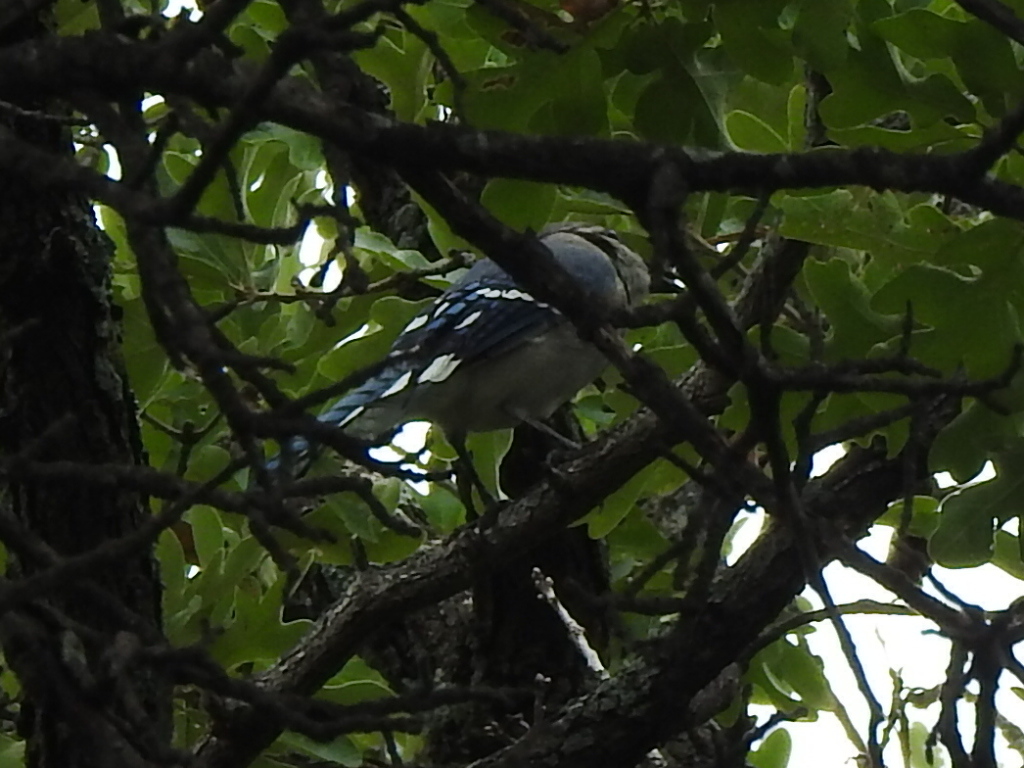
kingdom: Animalia
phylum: Chordata
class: Aves
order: Passeriformes
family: Corvidae
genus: Cyanocitta
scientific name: Cyanocitta cristata
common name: Blue jay
